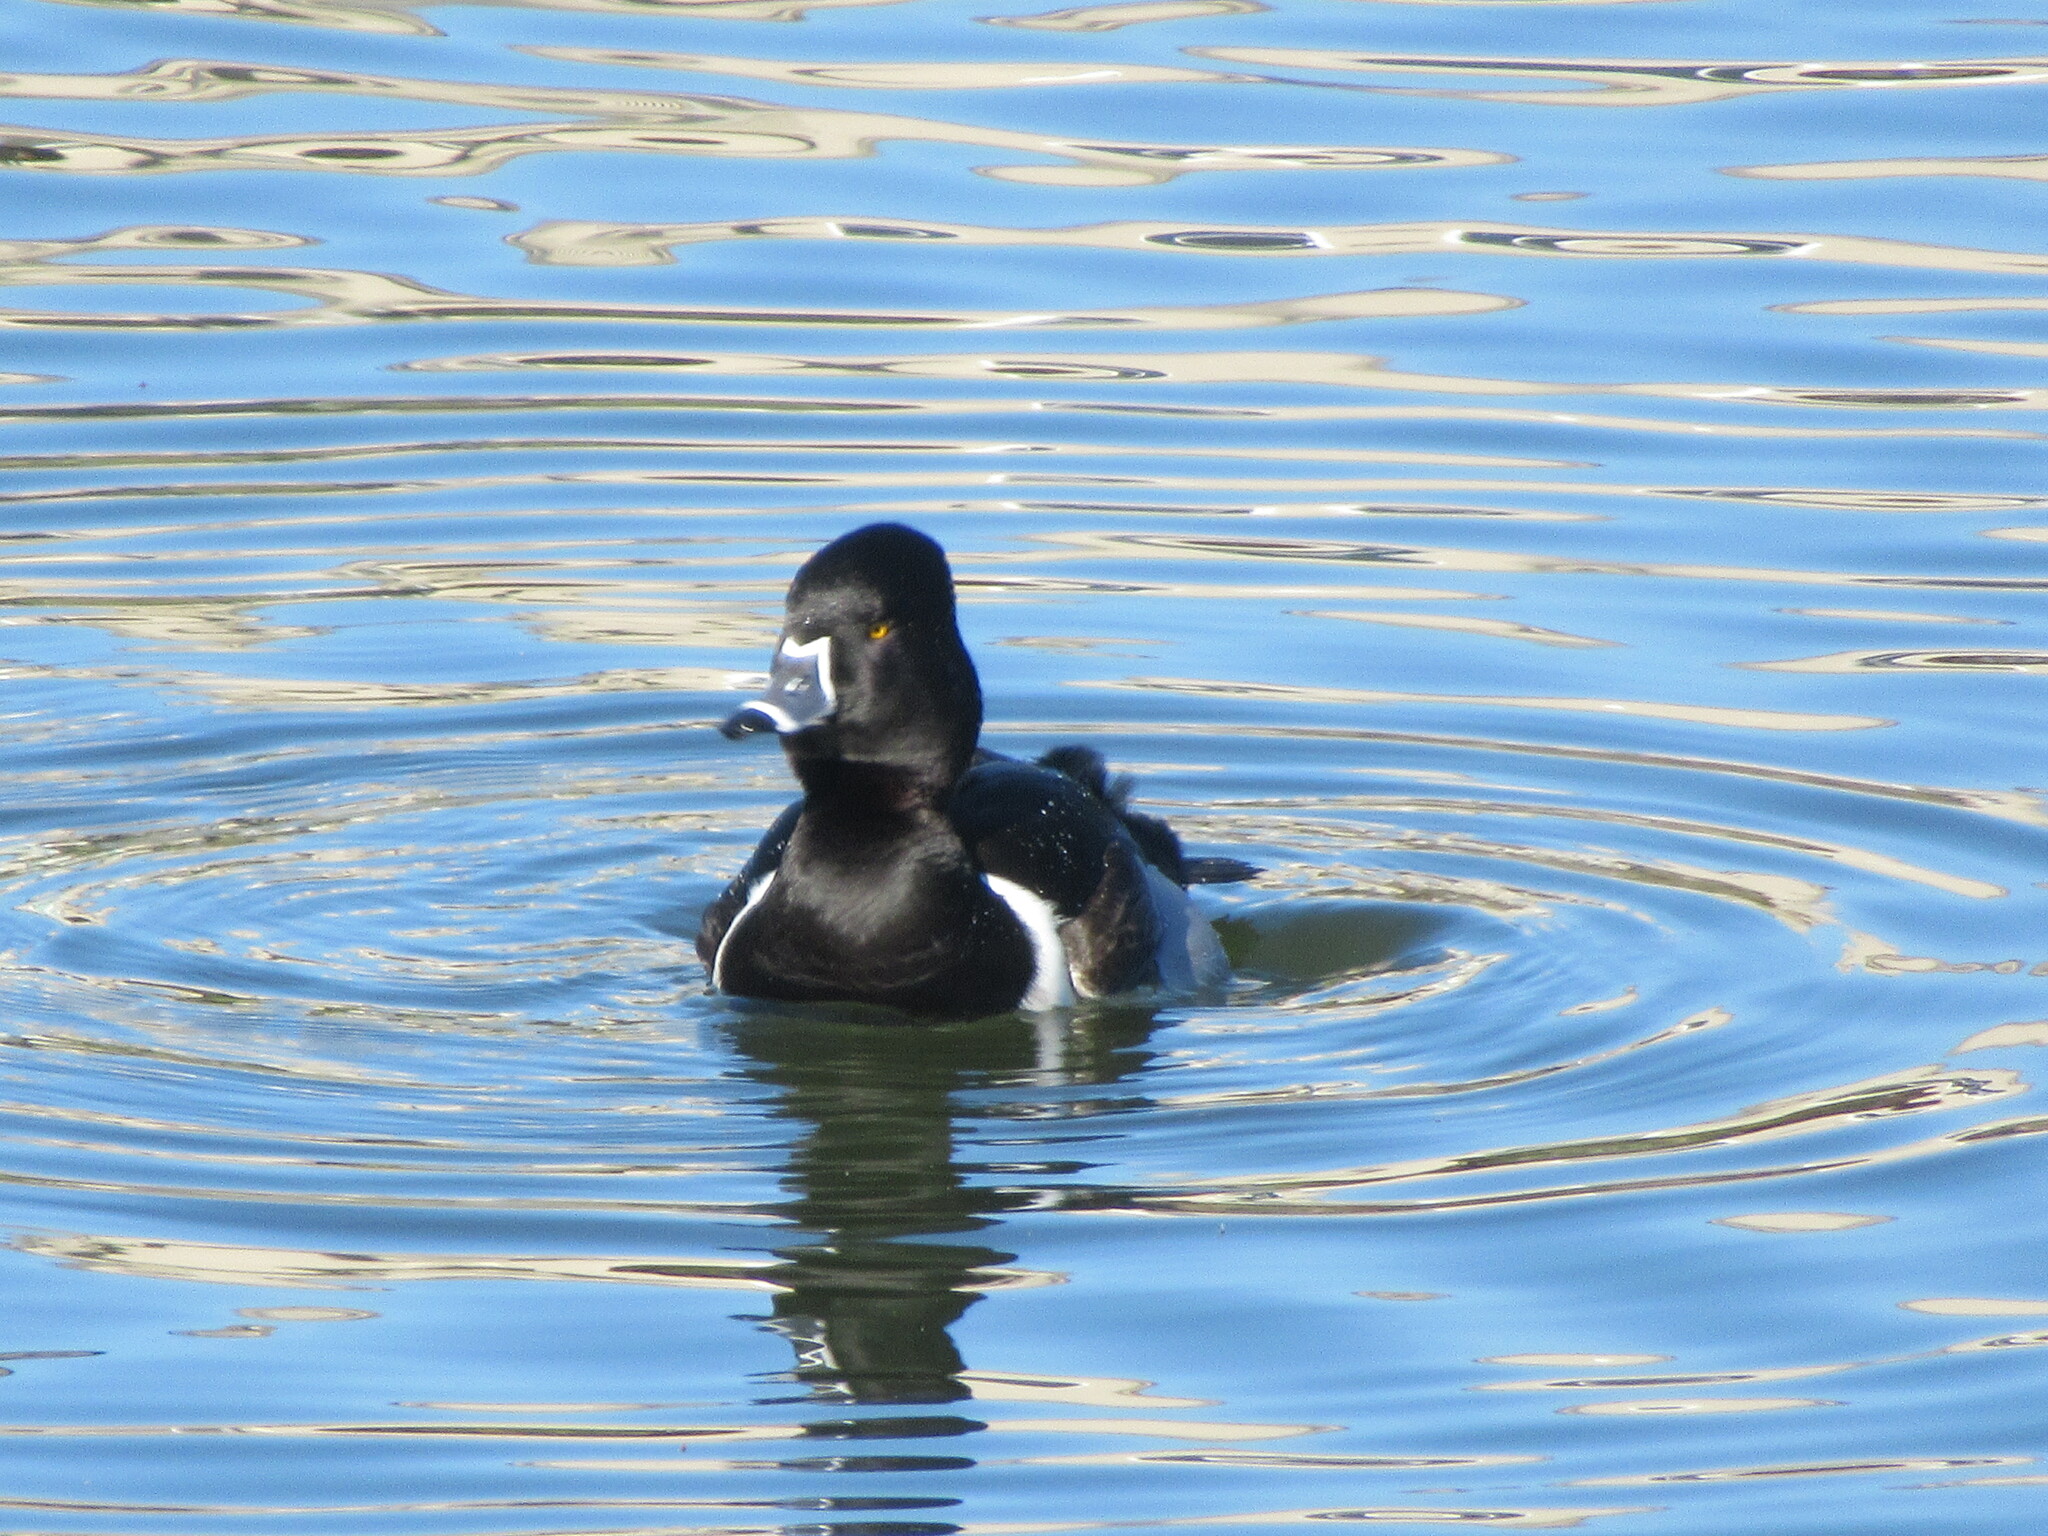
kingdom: Animalia
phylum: Chordata
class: Aves
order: Anseriformes
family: Anatidae
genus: Aythya
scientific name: Aythya collaris
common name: Ring-necked duck
